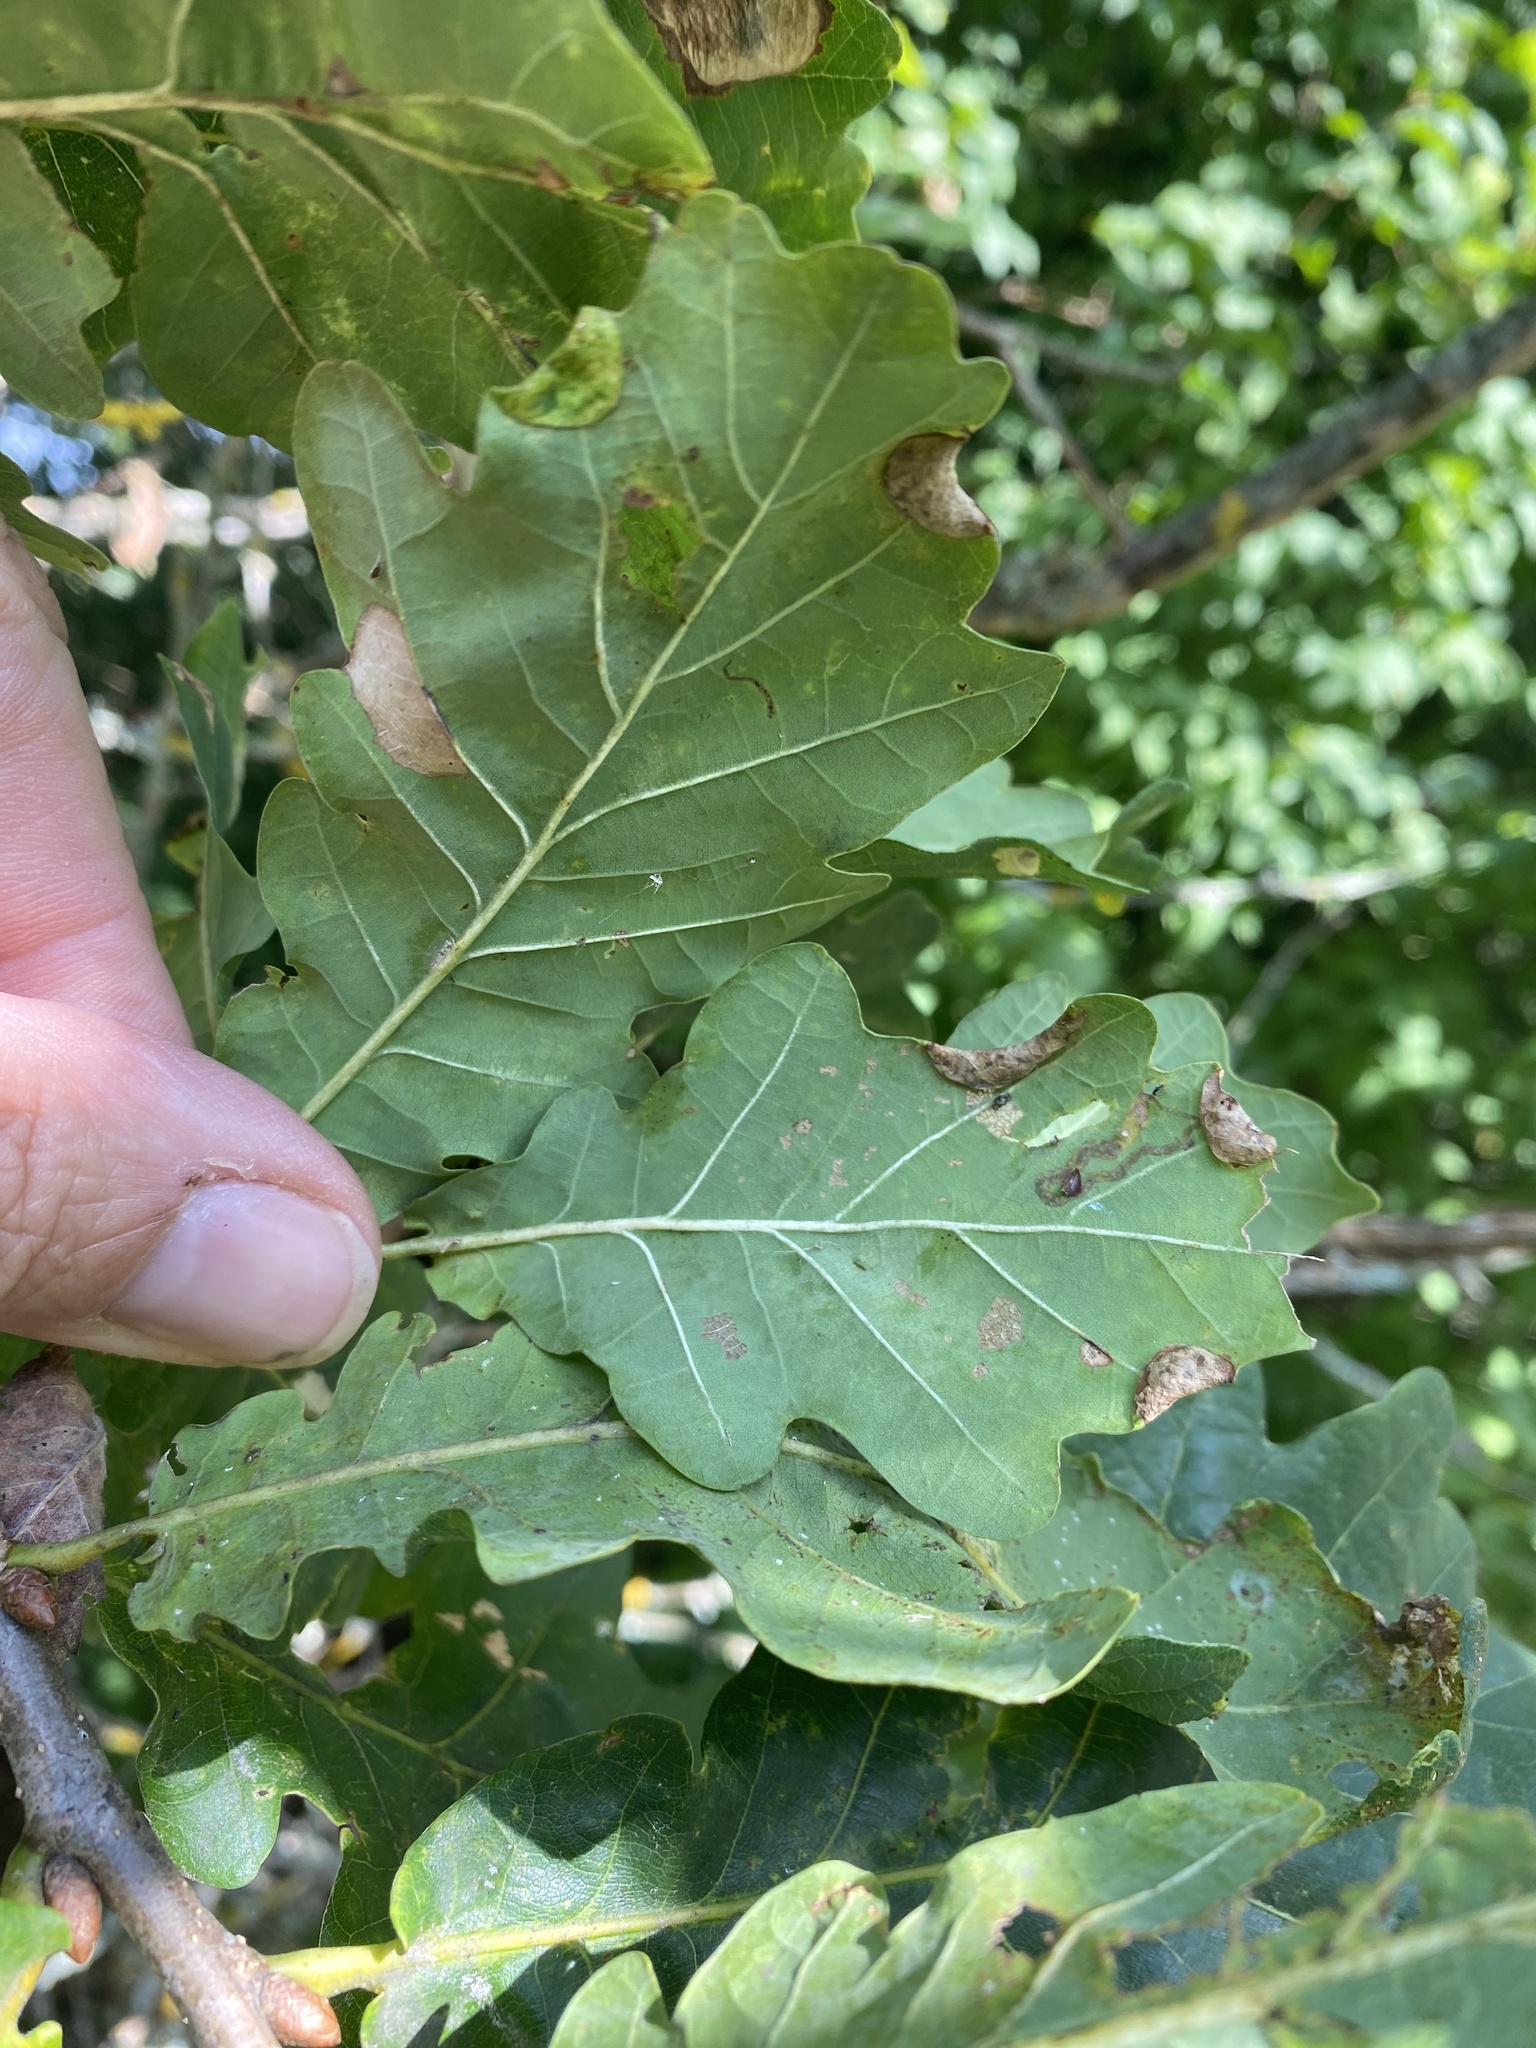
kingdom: Animalia
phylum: Arthropoda
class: Insecta
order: Diptera
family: Cecidomyiidae
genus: Macrodiplosis
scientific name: Macrodiplosis pustularis
